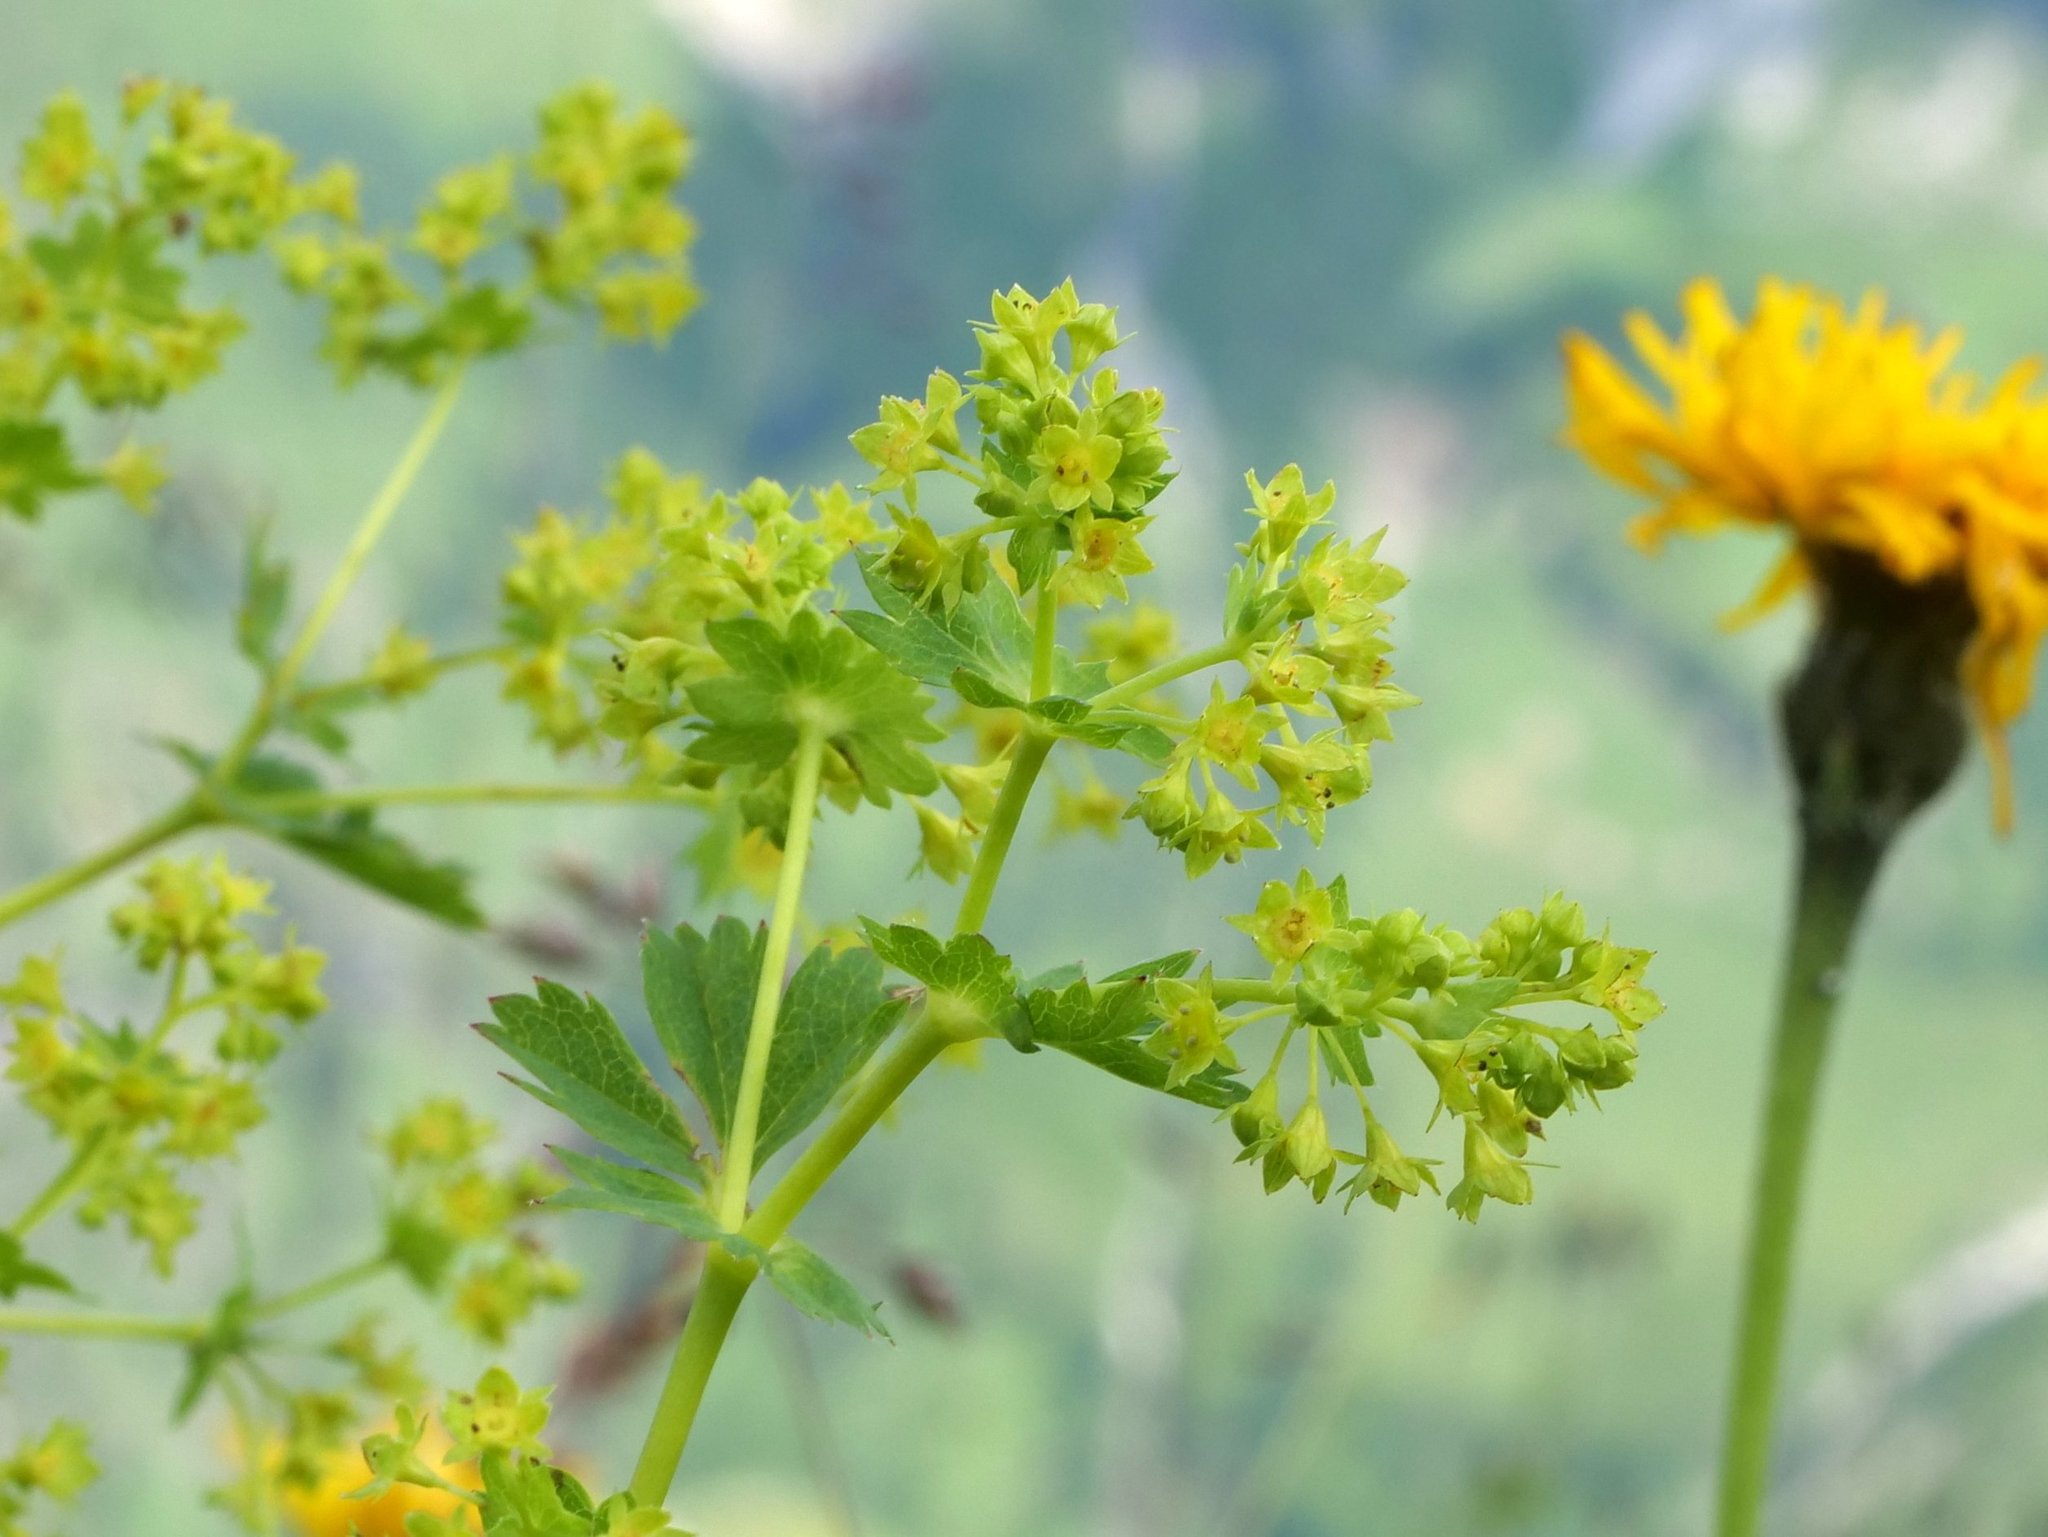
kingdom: Plantae
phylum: Tracheophyta
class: Magnoliopsida
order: Rosales
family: Rosaceae
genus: Alchemilla
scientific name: Alchemilla
